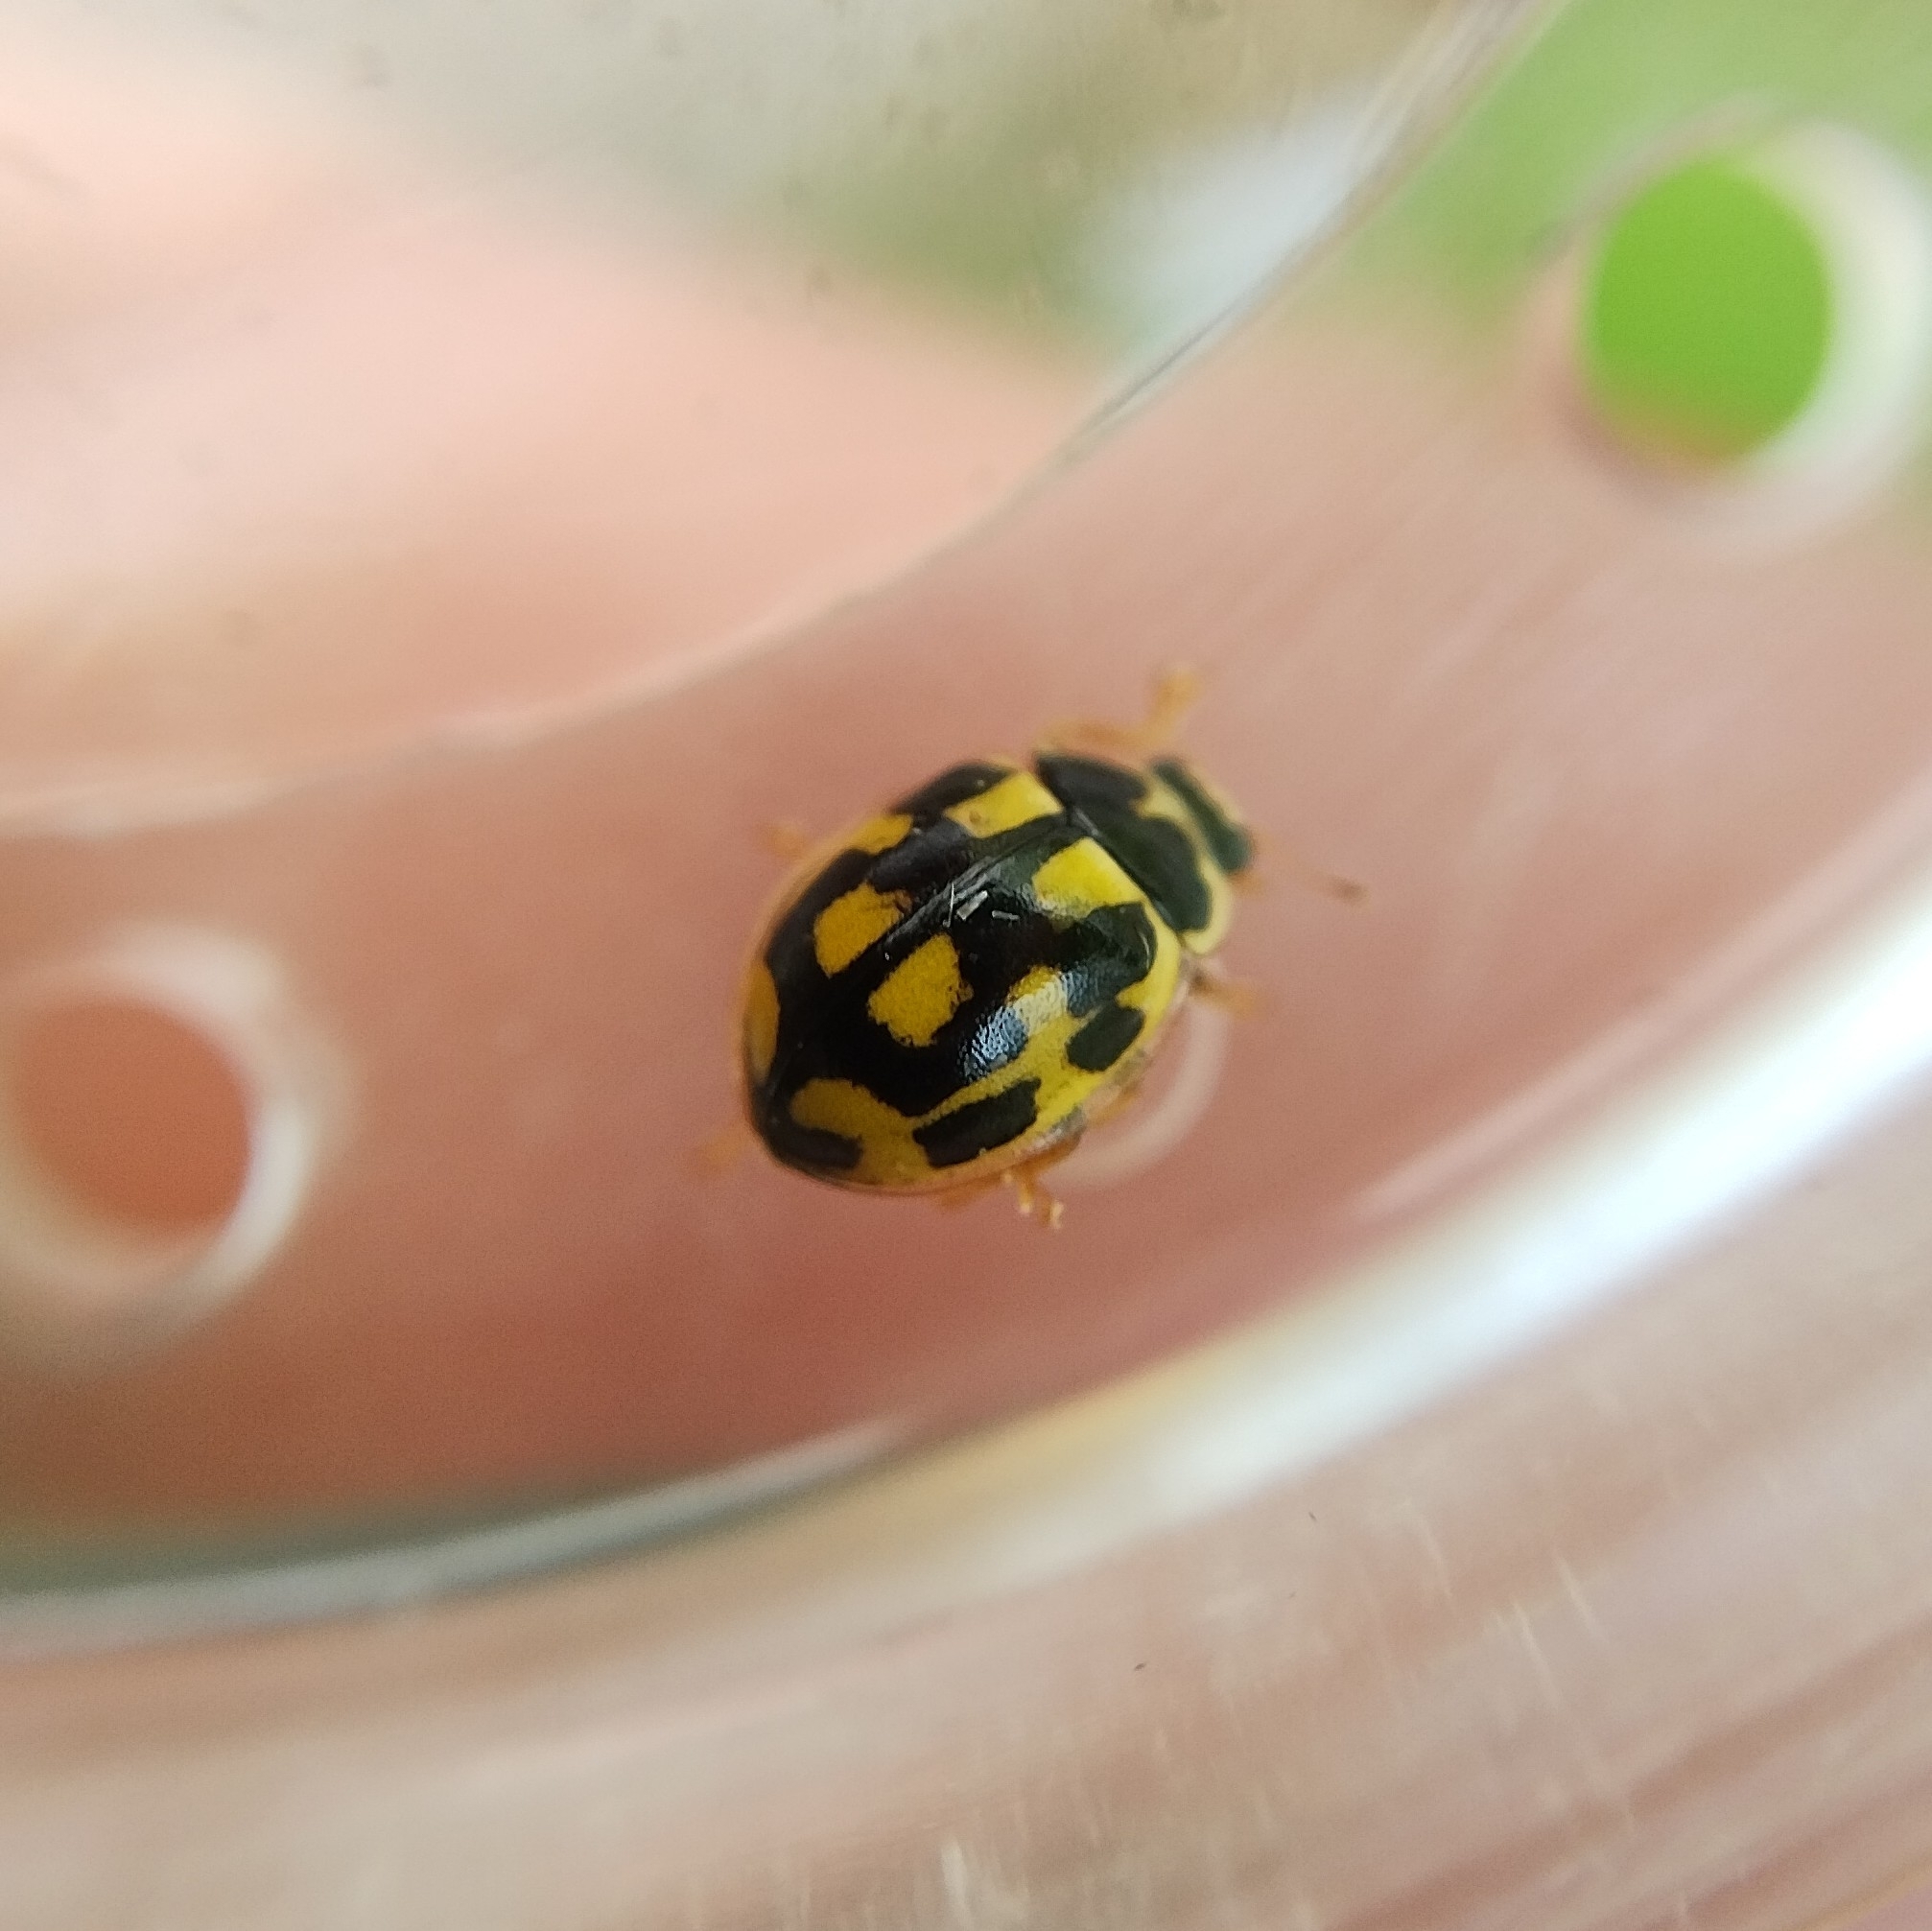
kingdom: Animalia
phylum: Arthropoda
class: Insecta
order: Coleoptera
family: Coccinellidae
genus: Propylaea
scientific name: Propylaea quatuordecimpunctata
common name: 14-spotted ladybird beetle
